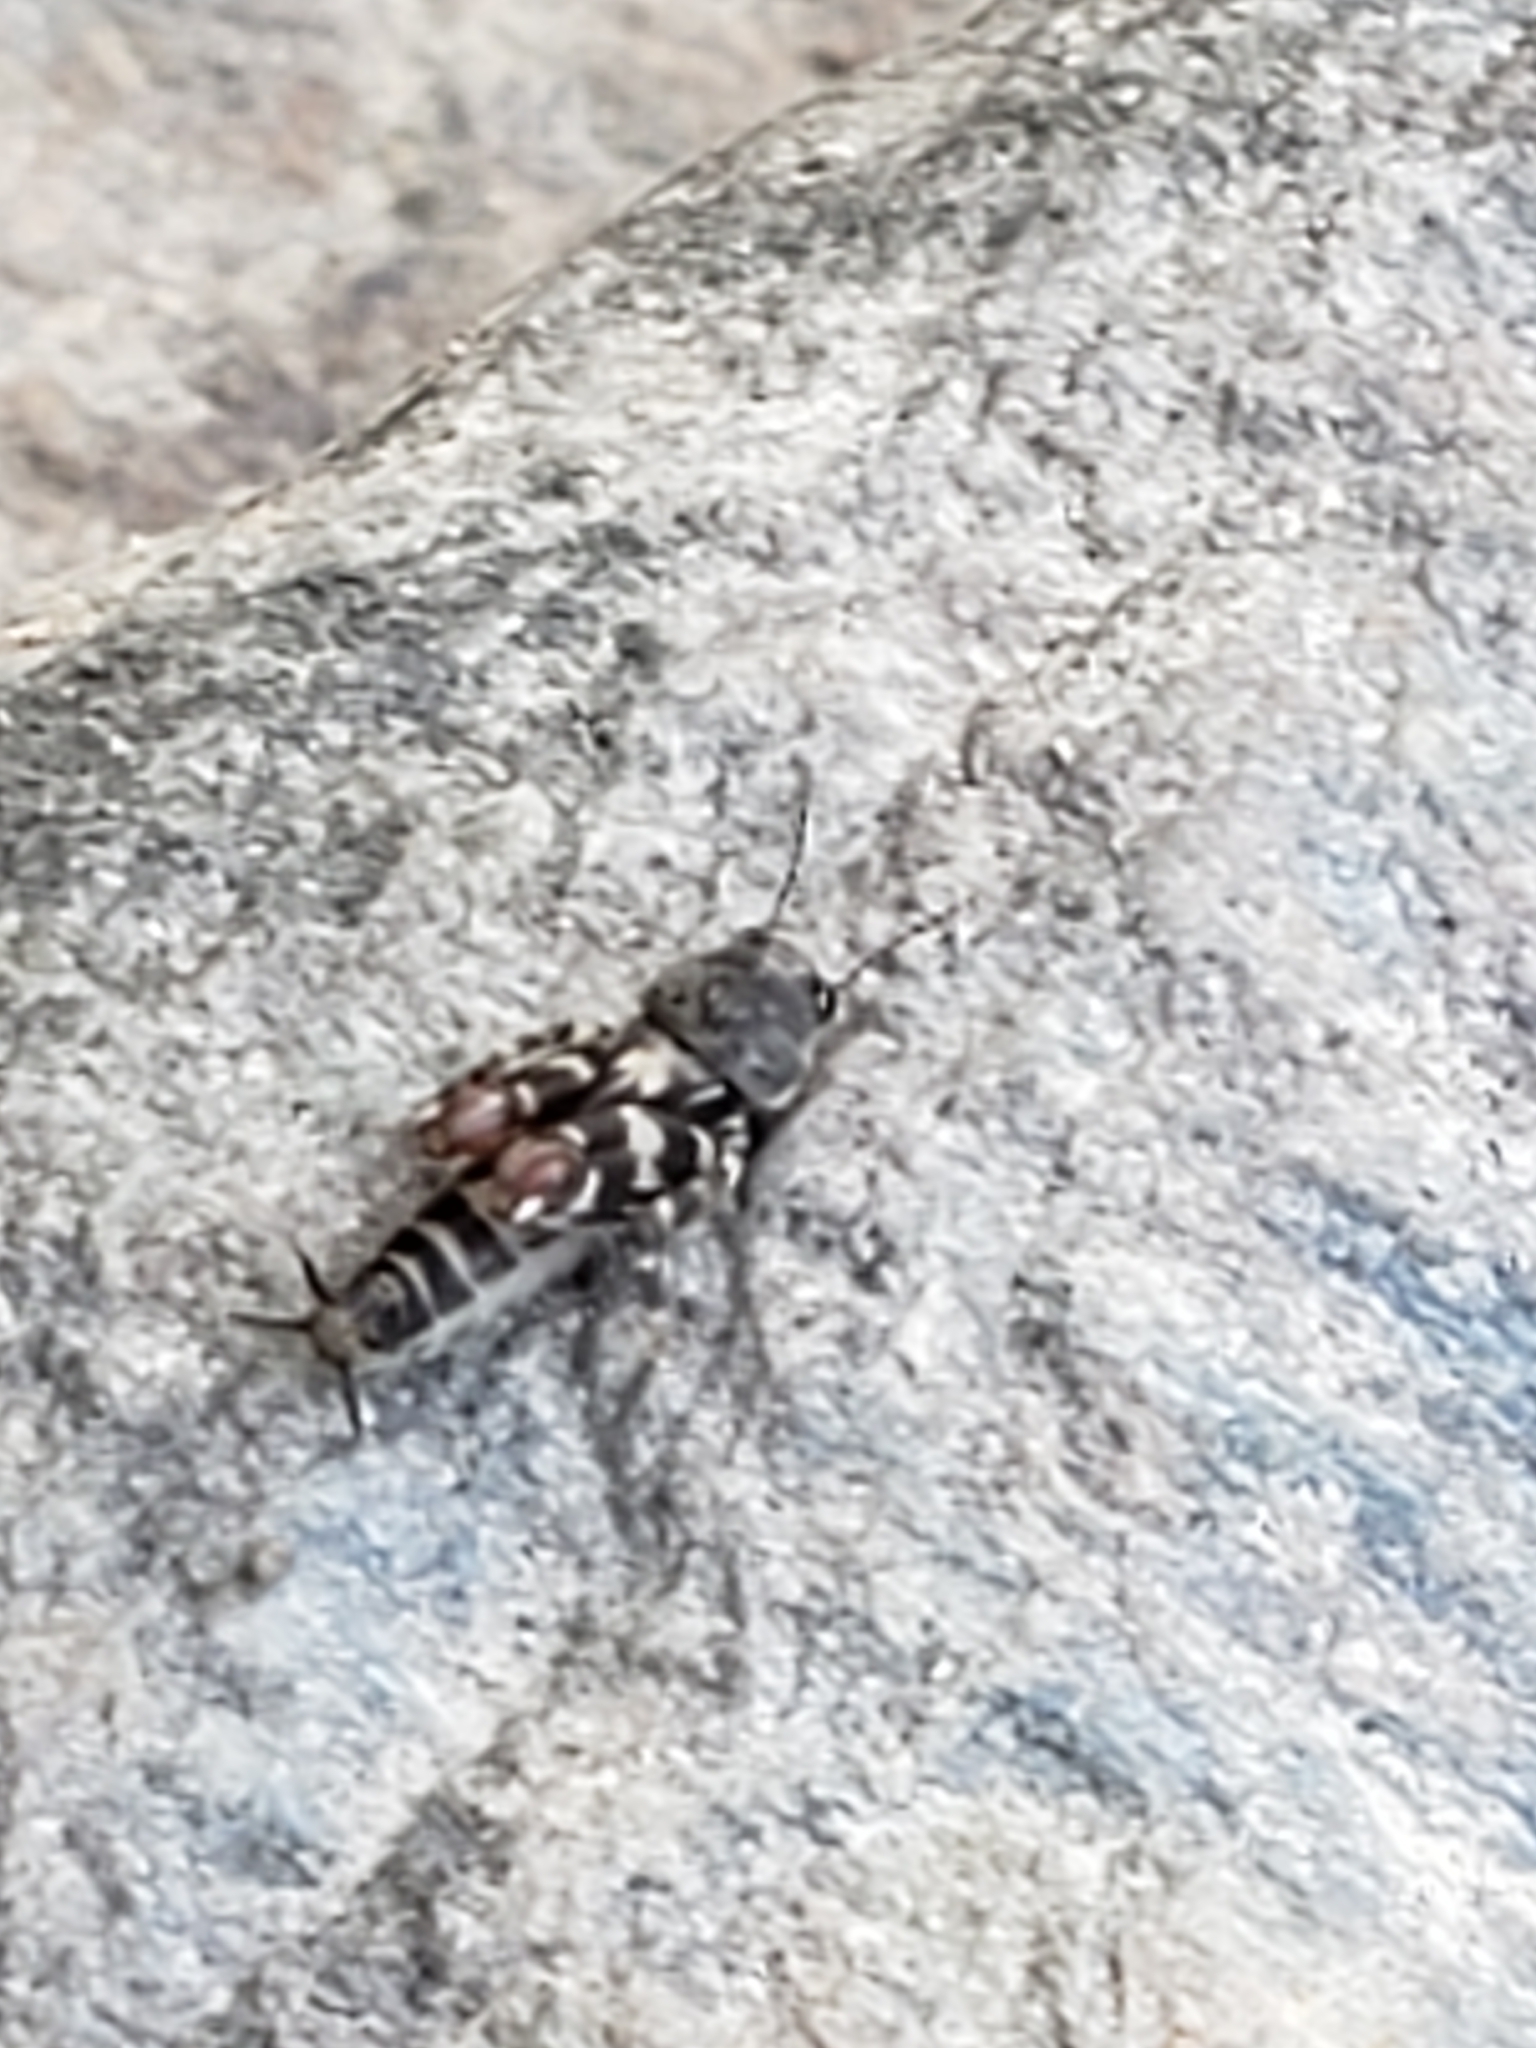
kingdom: Animalia
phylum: Arthropoda
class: Insecta
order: Orthoptera
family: Tridactylidae
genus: Ellipes
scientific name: Ellipes minuta
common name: Minute pygmy locust
